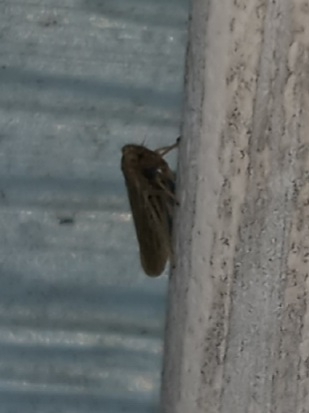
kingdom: Animalia
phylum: Arthropoda
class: Insecta
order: Hemiptera
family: Cicadellidae
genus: Agallia
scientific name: Agallia constricta
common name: The constricted leafhopper
